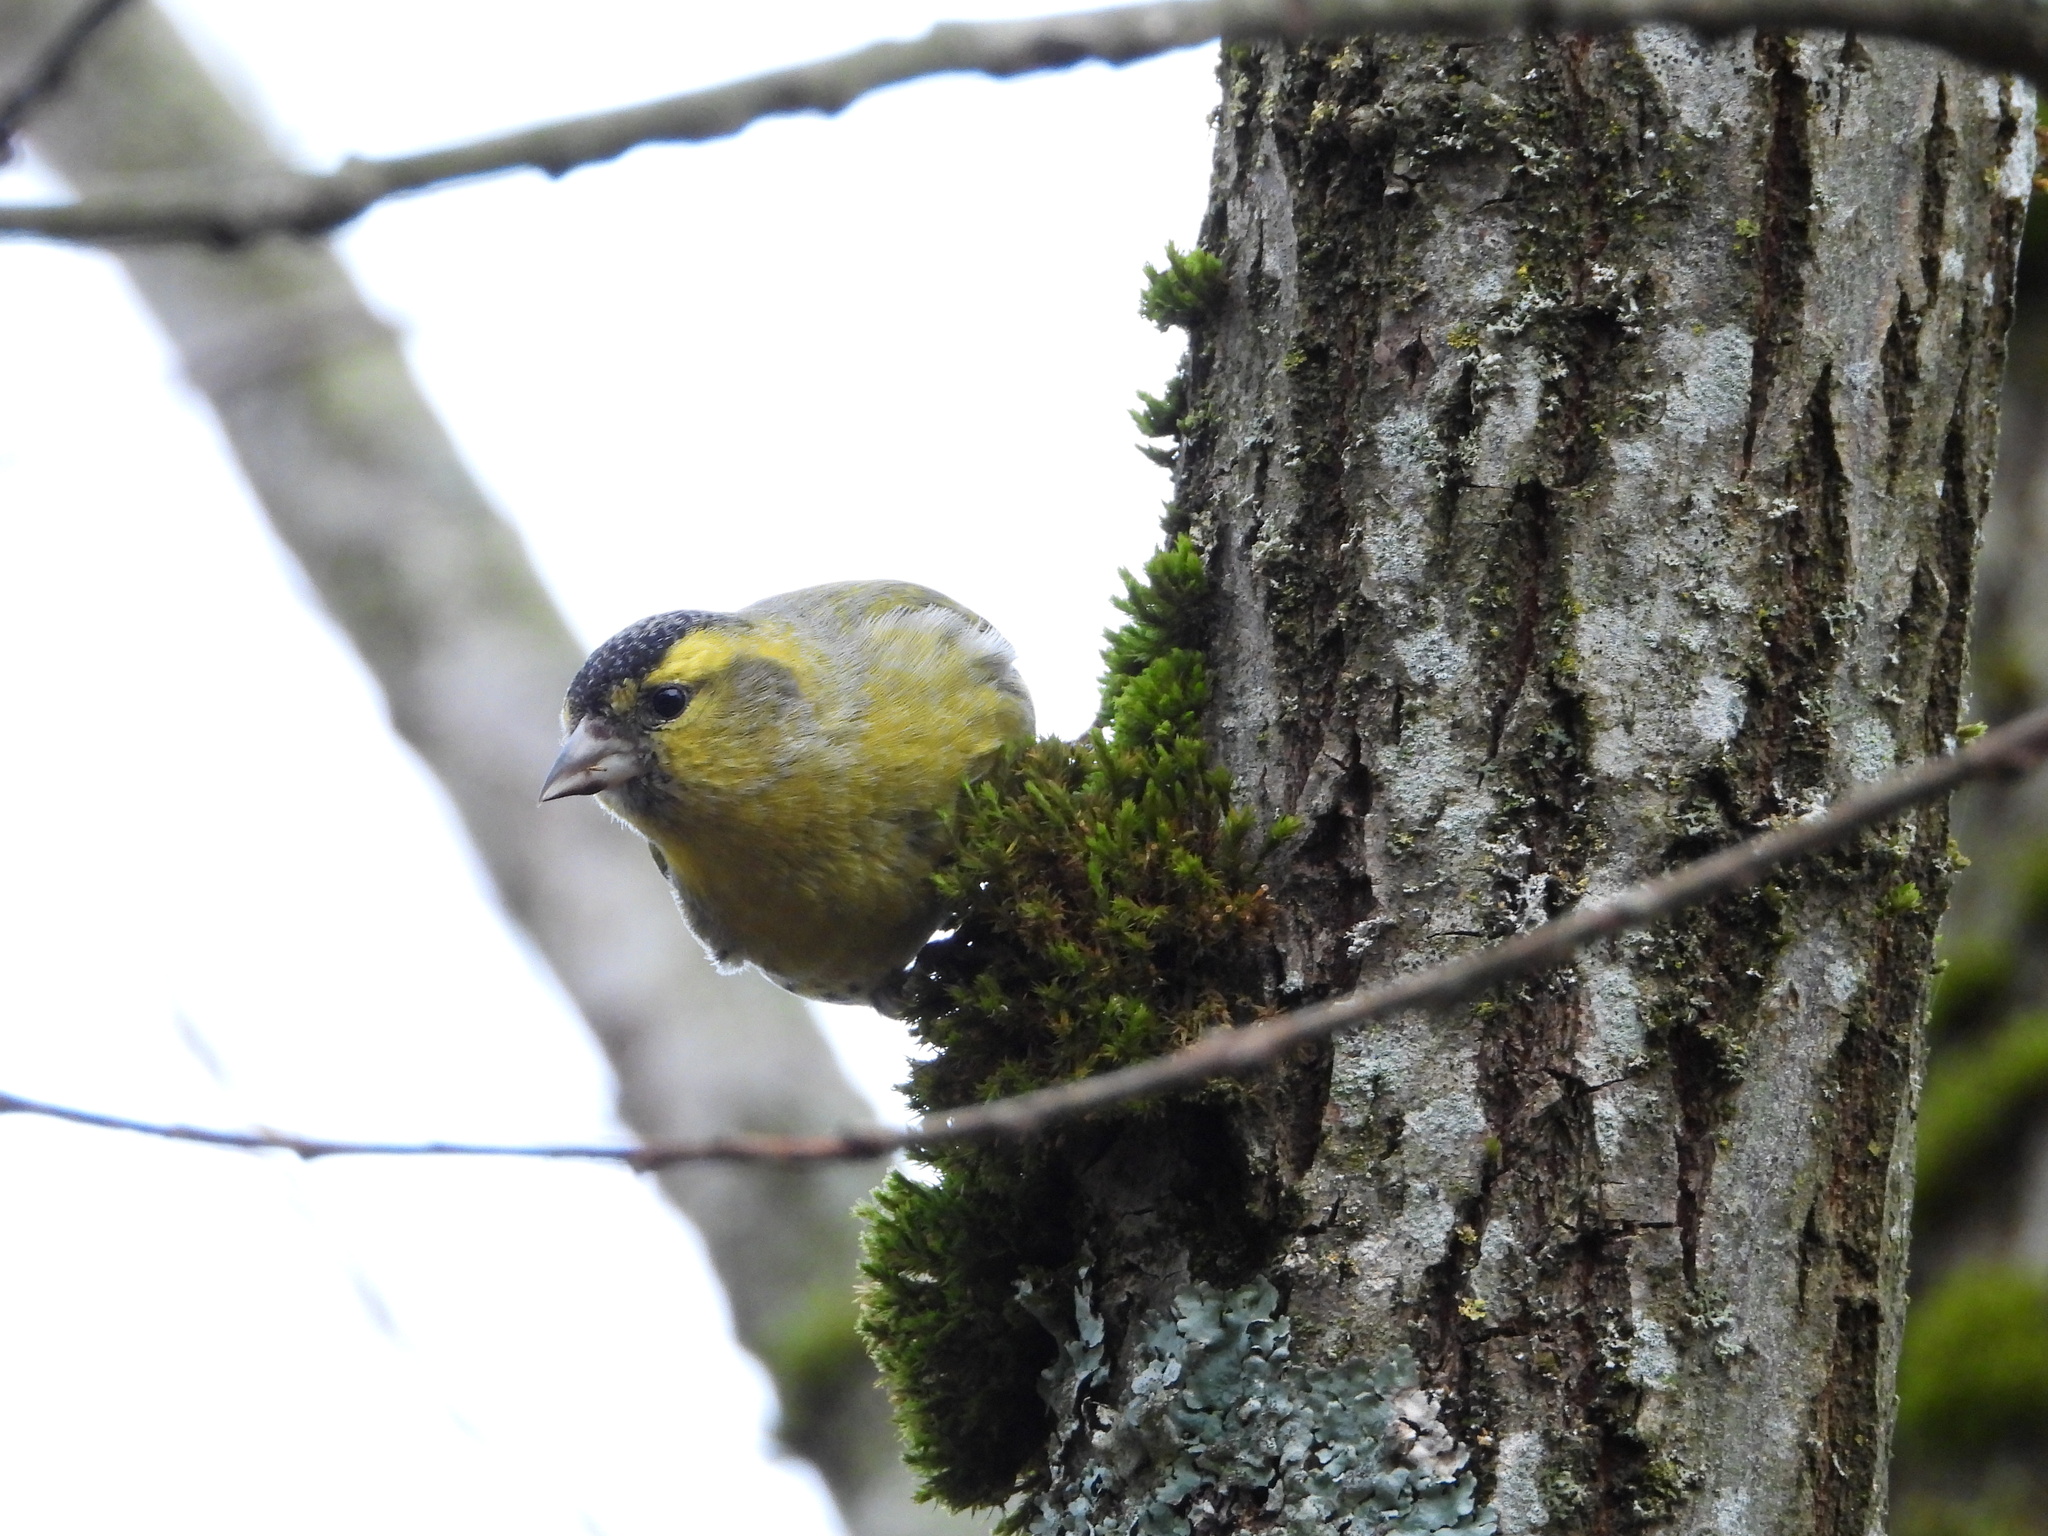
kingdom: Animalia
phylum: Chordata
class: Aves
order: Passeriformes
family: Fringillidae
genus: Spinus
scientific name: Spinus spinus
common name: Eurasian siskin
